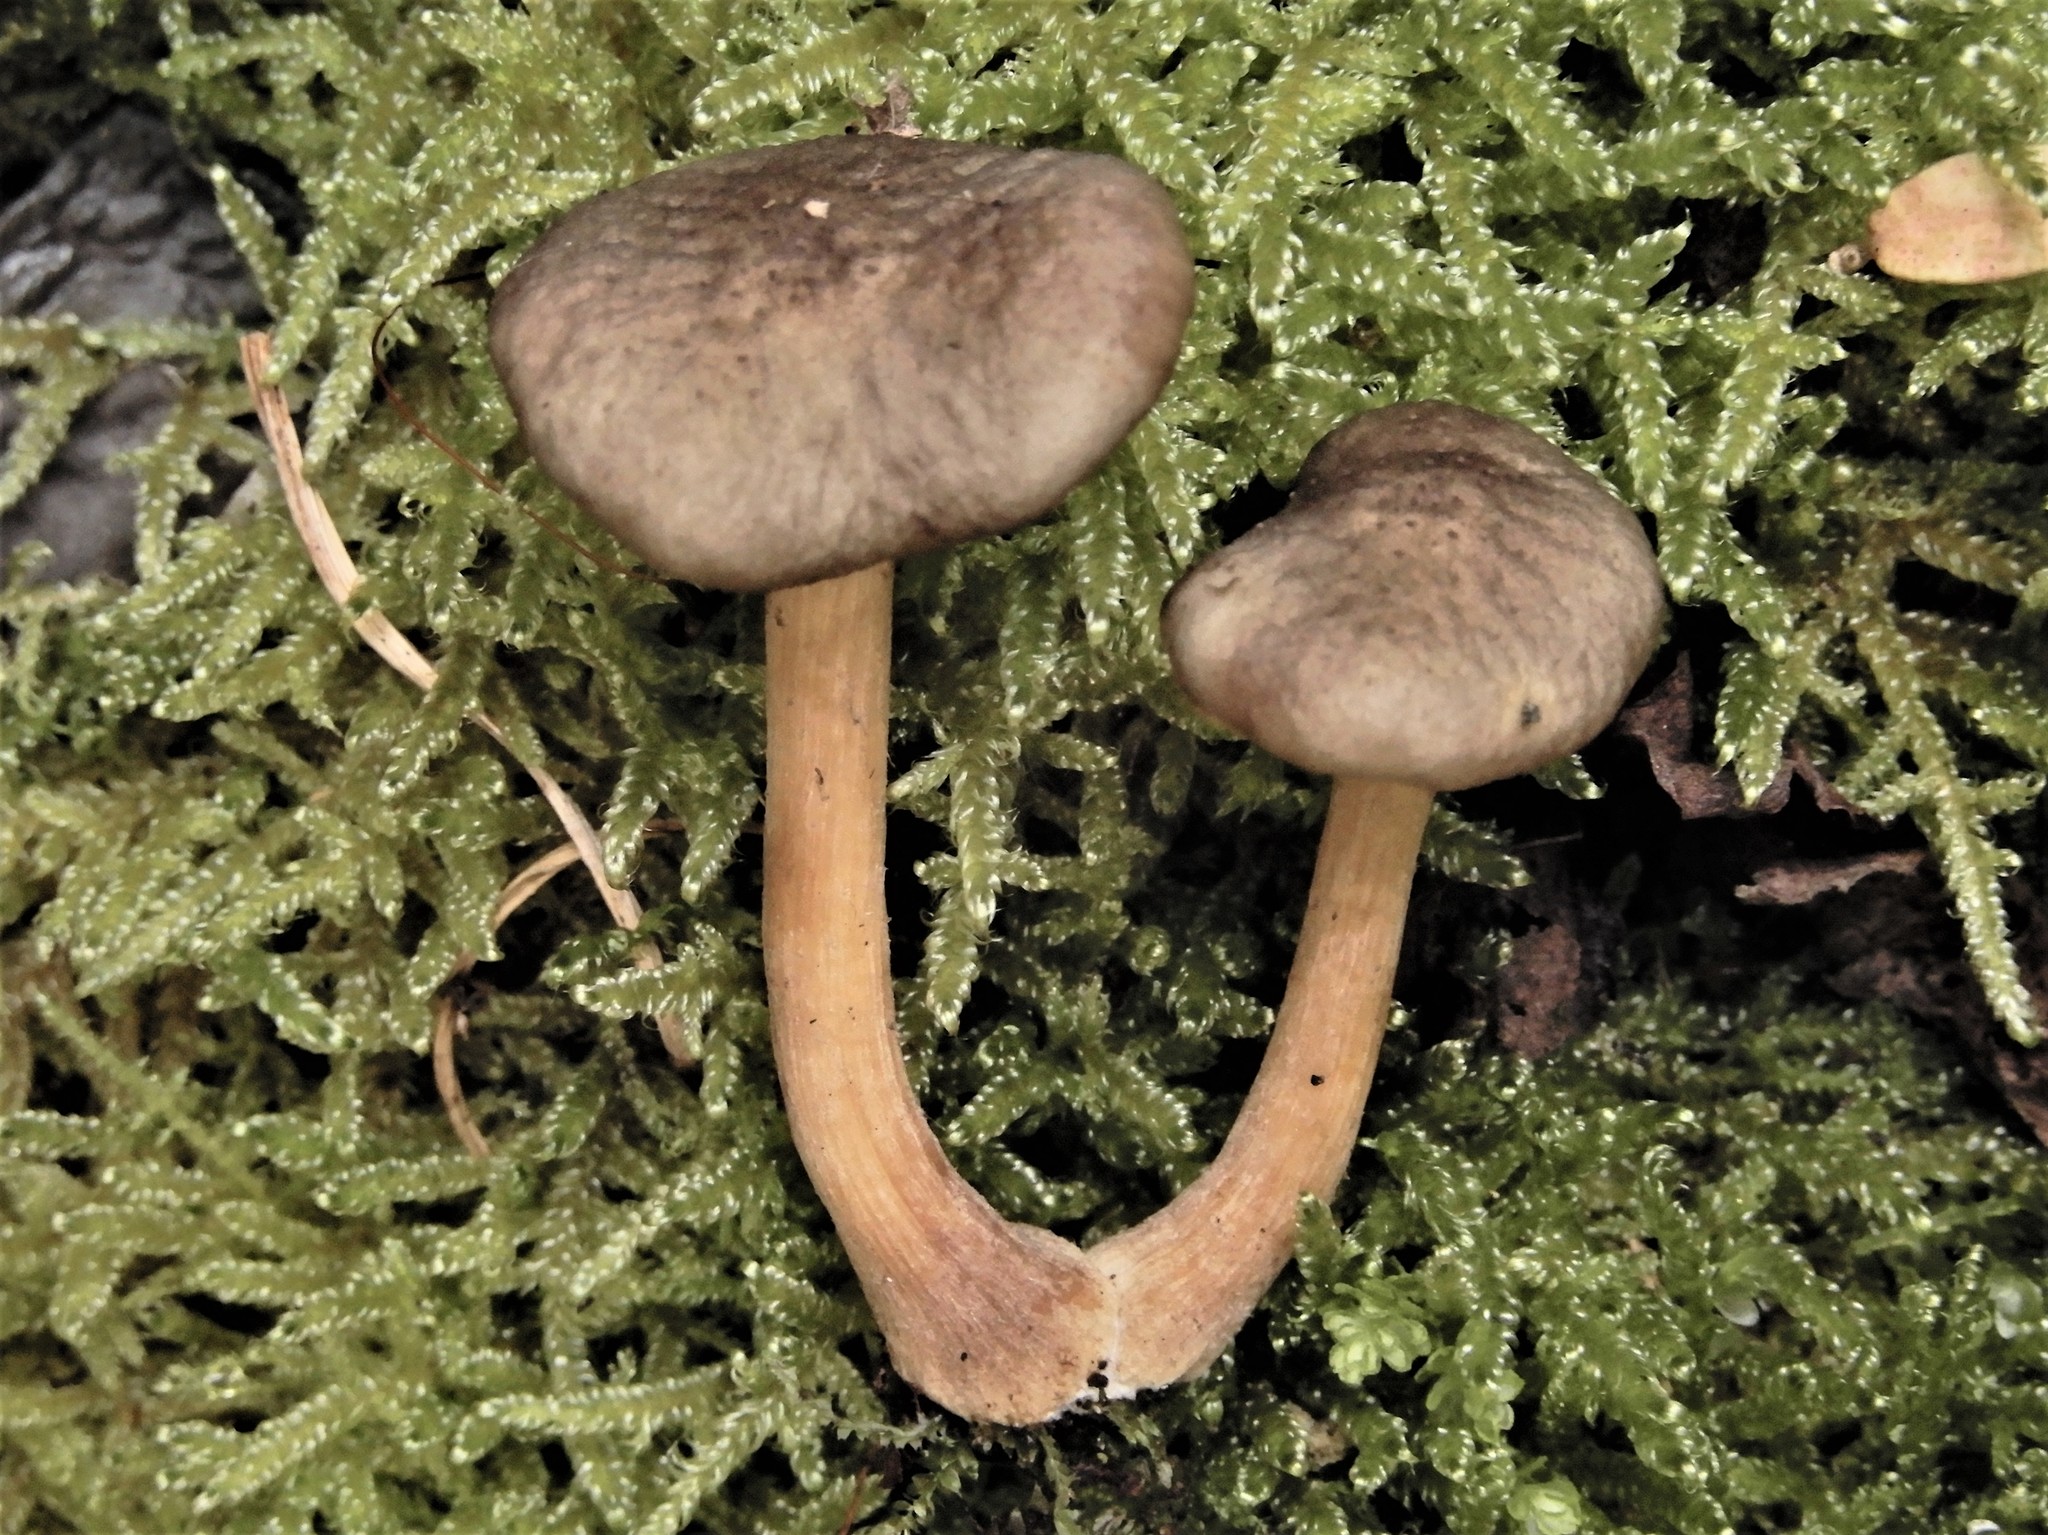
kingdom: Fungi
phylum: Basidiomycota
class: Agaricomycetes
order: Agaricales
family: Physalacriaceae
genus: Armillaria
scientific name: Armillaria novae-zelandiae
